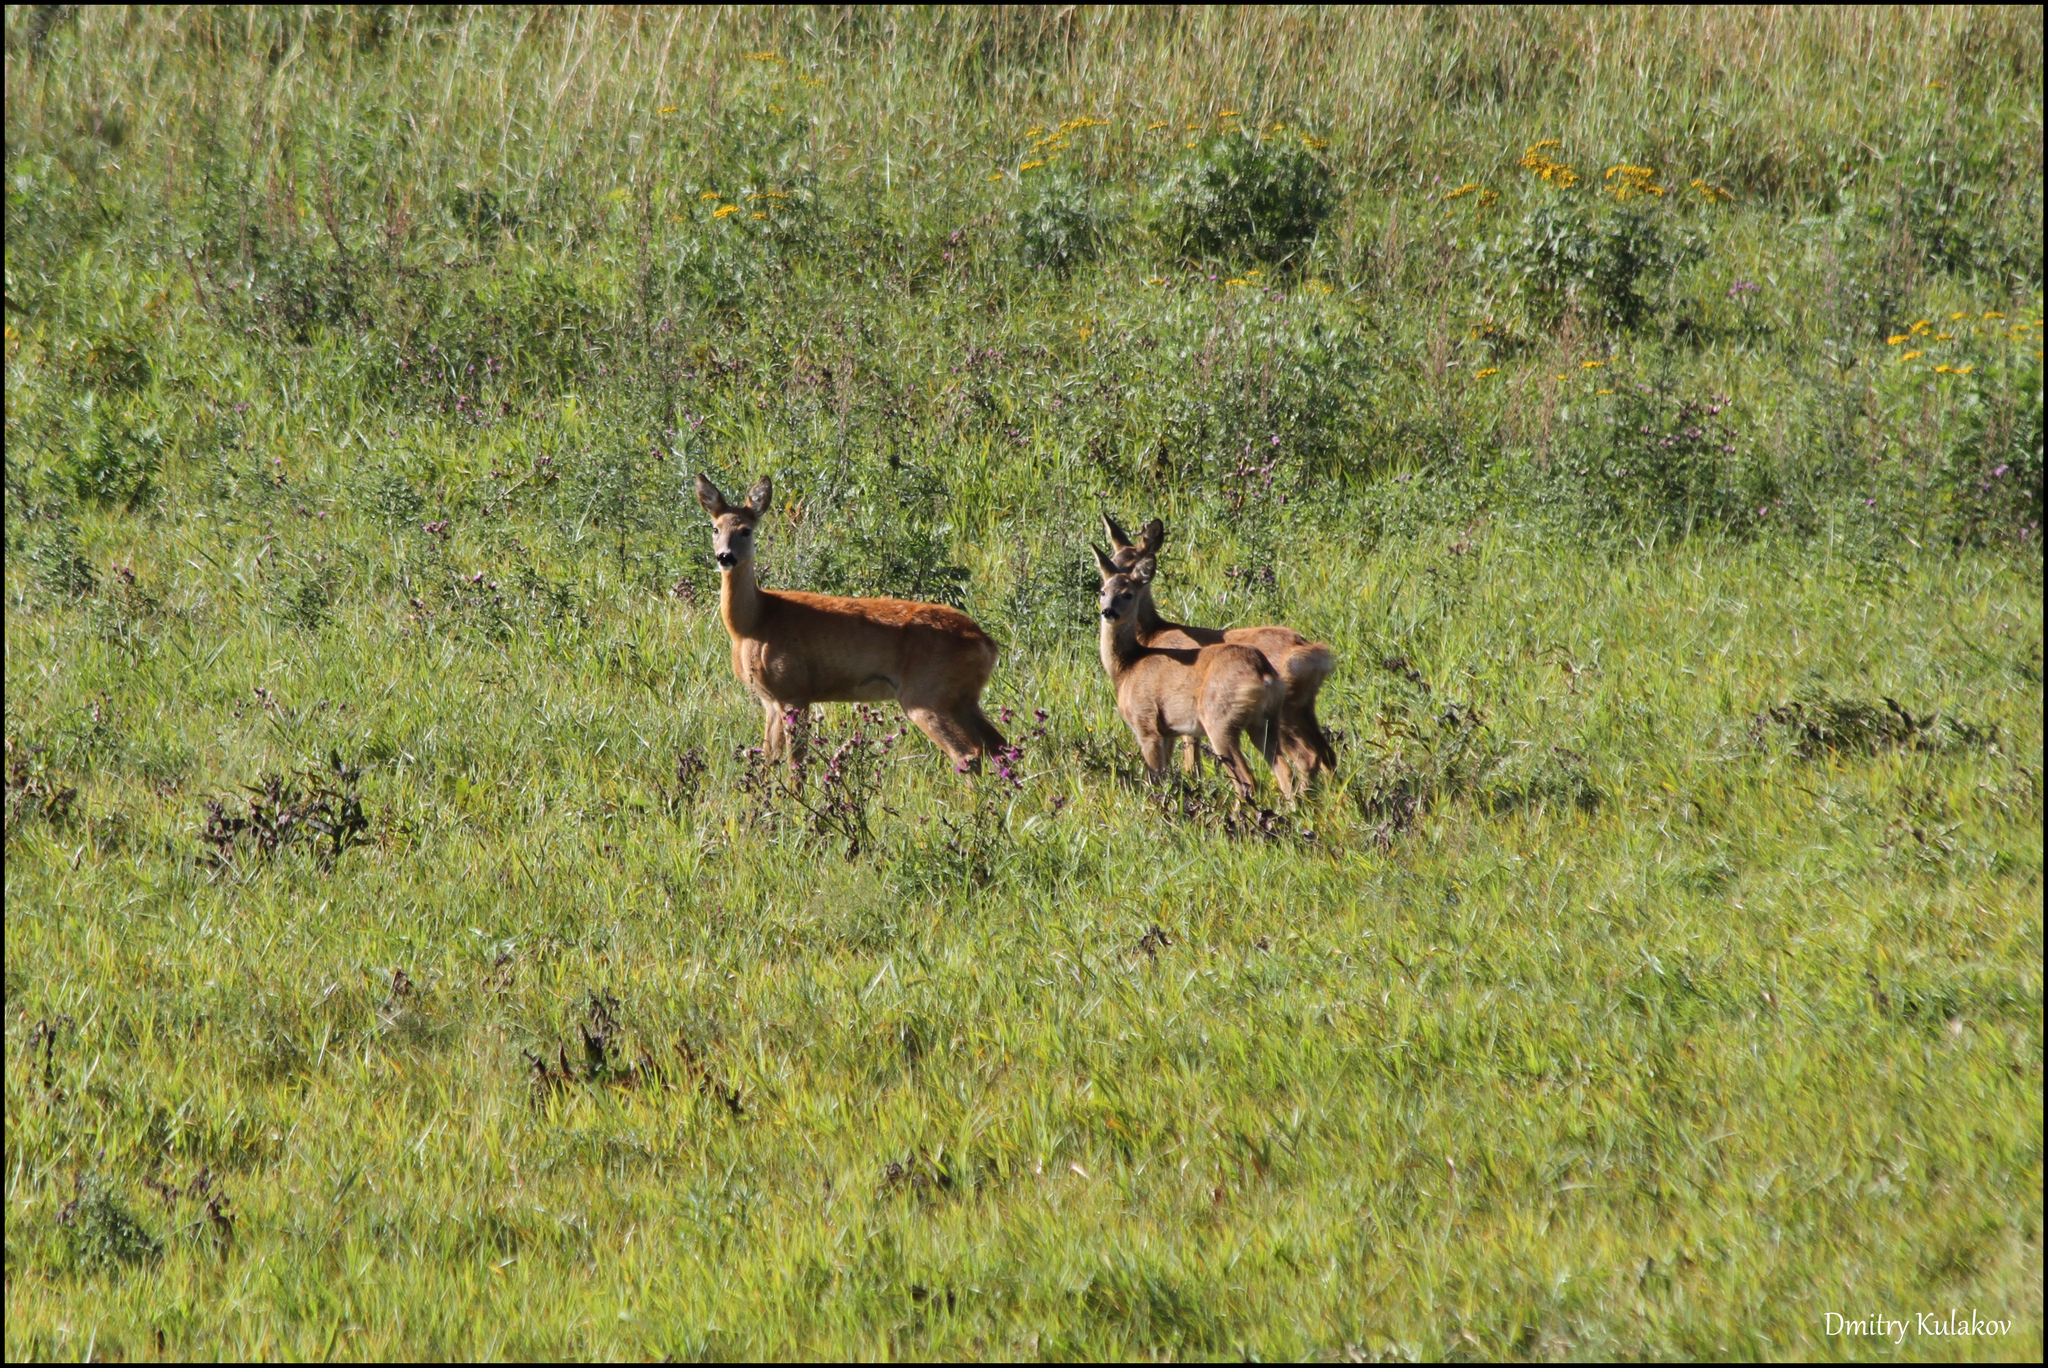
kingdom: Animalia
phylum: Chordata
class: Mammalia
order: Artiodactyla
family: Cervidae
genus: Capreolus
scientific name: Capreolus capreolus
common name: Western roe deer
